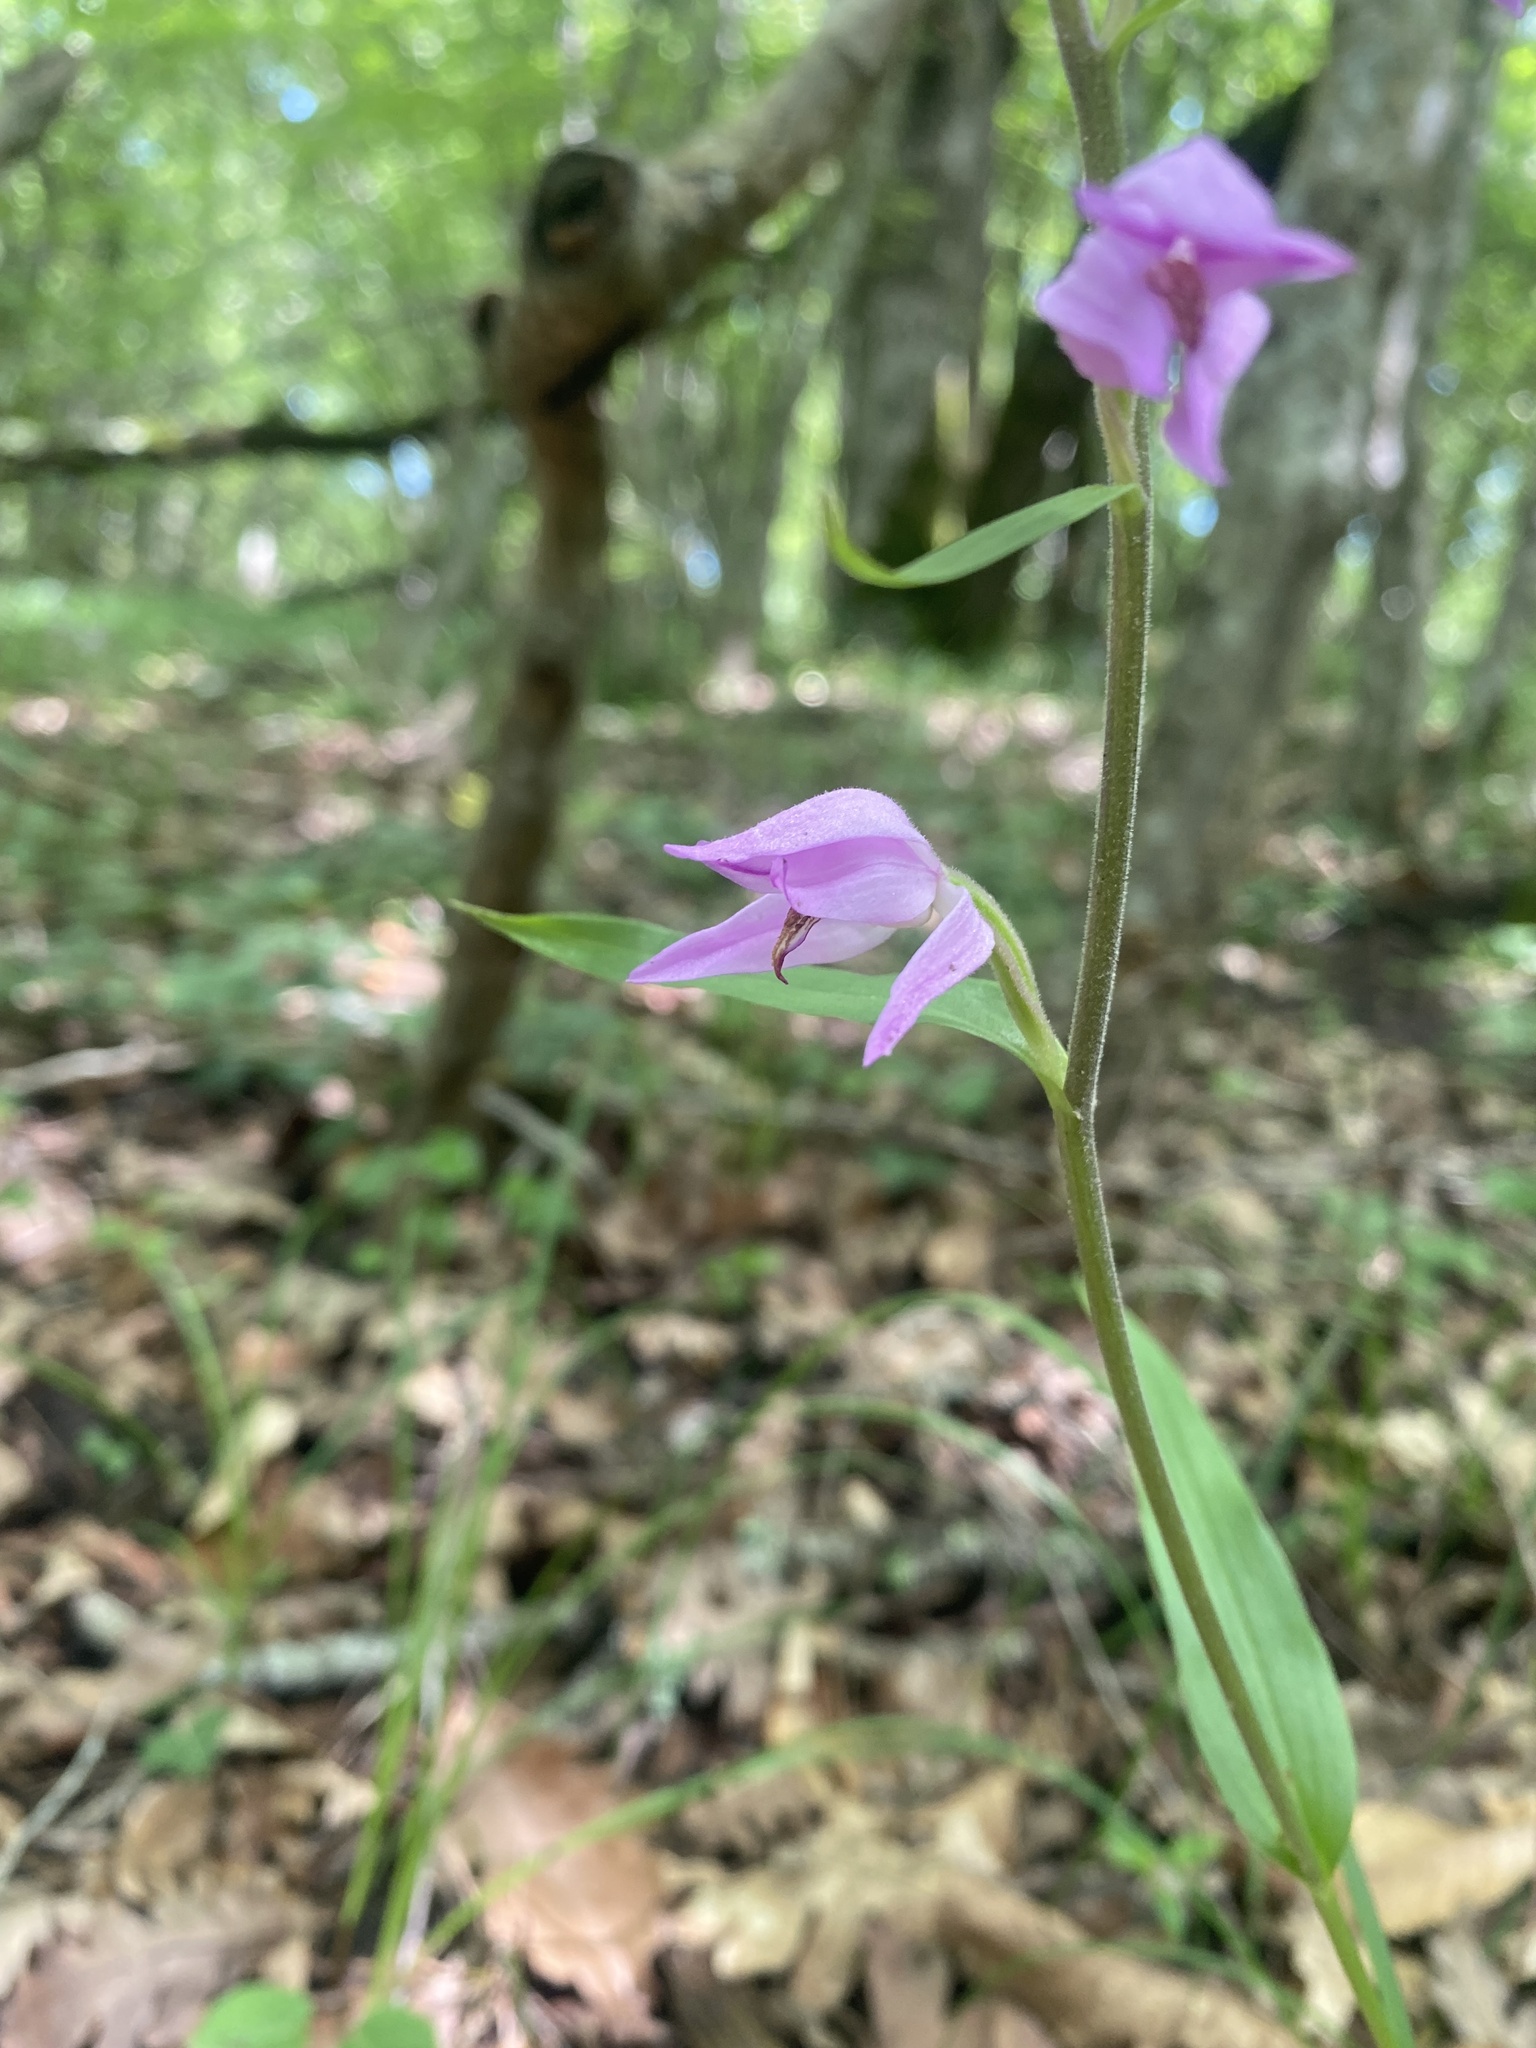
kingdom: Plantae
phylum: Tracheophyta
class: Liliopsida
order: Asparagales
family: Orchidaceae
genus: Cephalanthera
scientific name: Cephalanthera rubra
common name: Red helleborine
